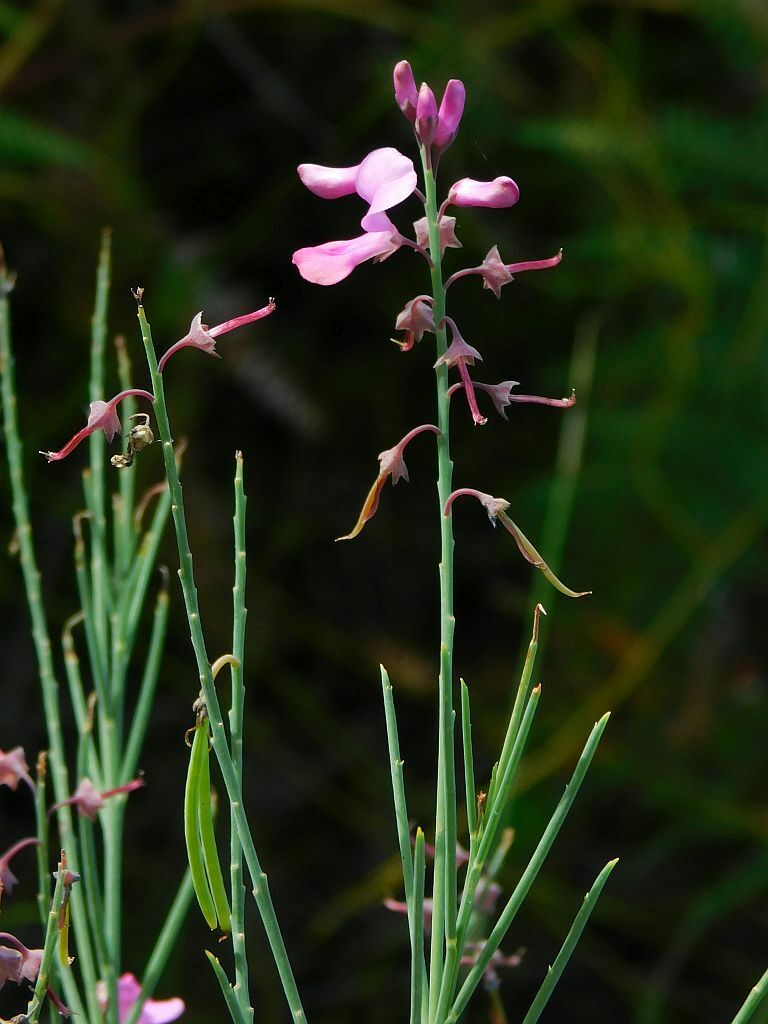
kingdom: Plantae
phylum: Tracheophyta
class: Magnoliopsida
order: Fabales
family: Fabaceae
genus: Indigofera
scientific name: Indigofera filifolia
